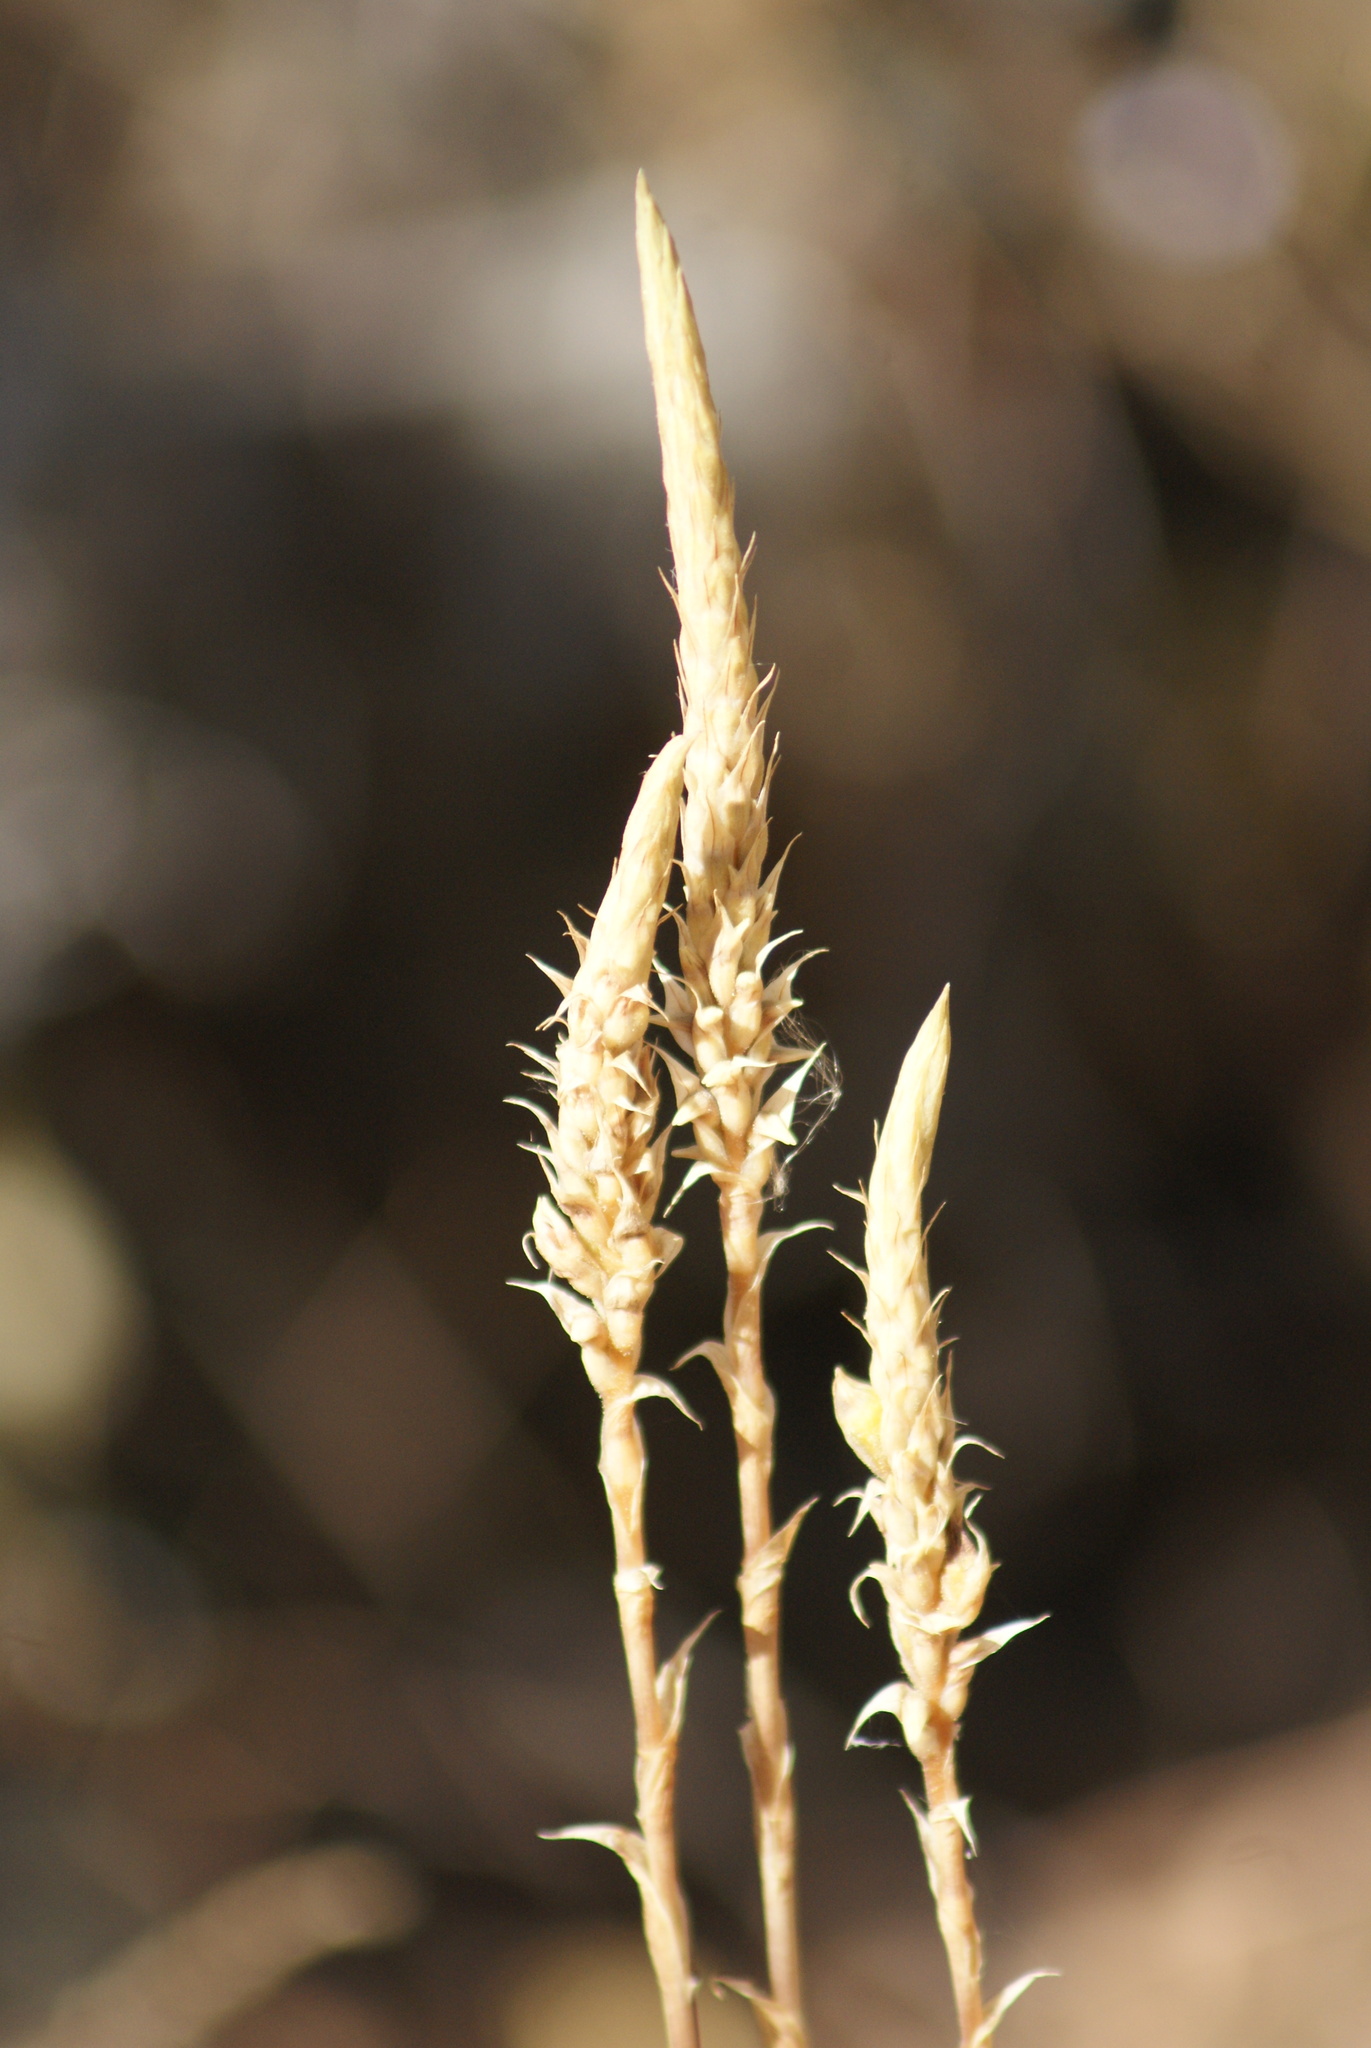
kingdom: Plantae
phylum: Tracheophyta
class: Liliopsida
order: Asparagales
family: Orchidaceae
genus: Aulosepalum
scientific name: Aulosepalum pyramidale
